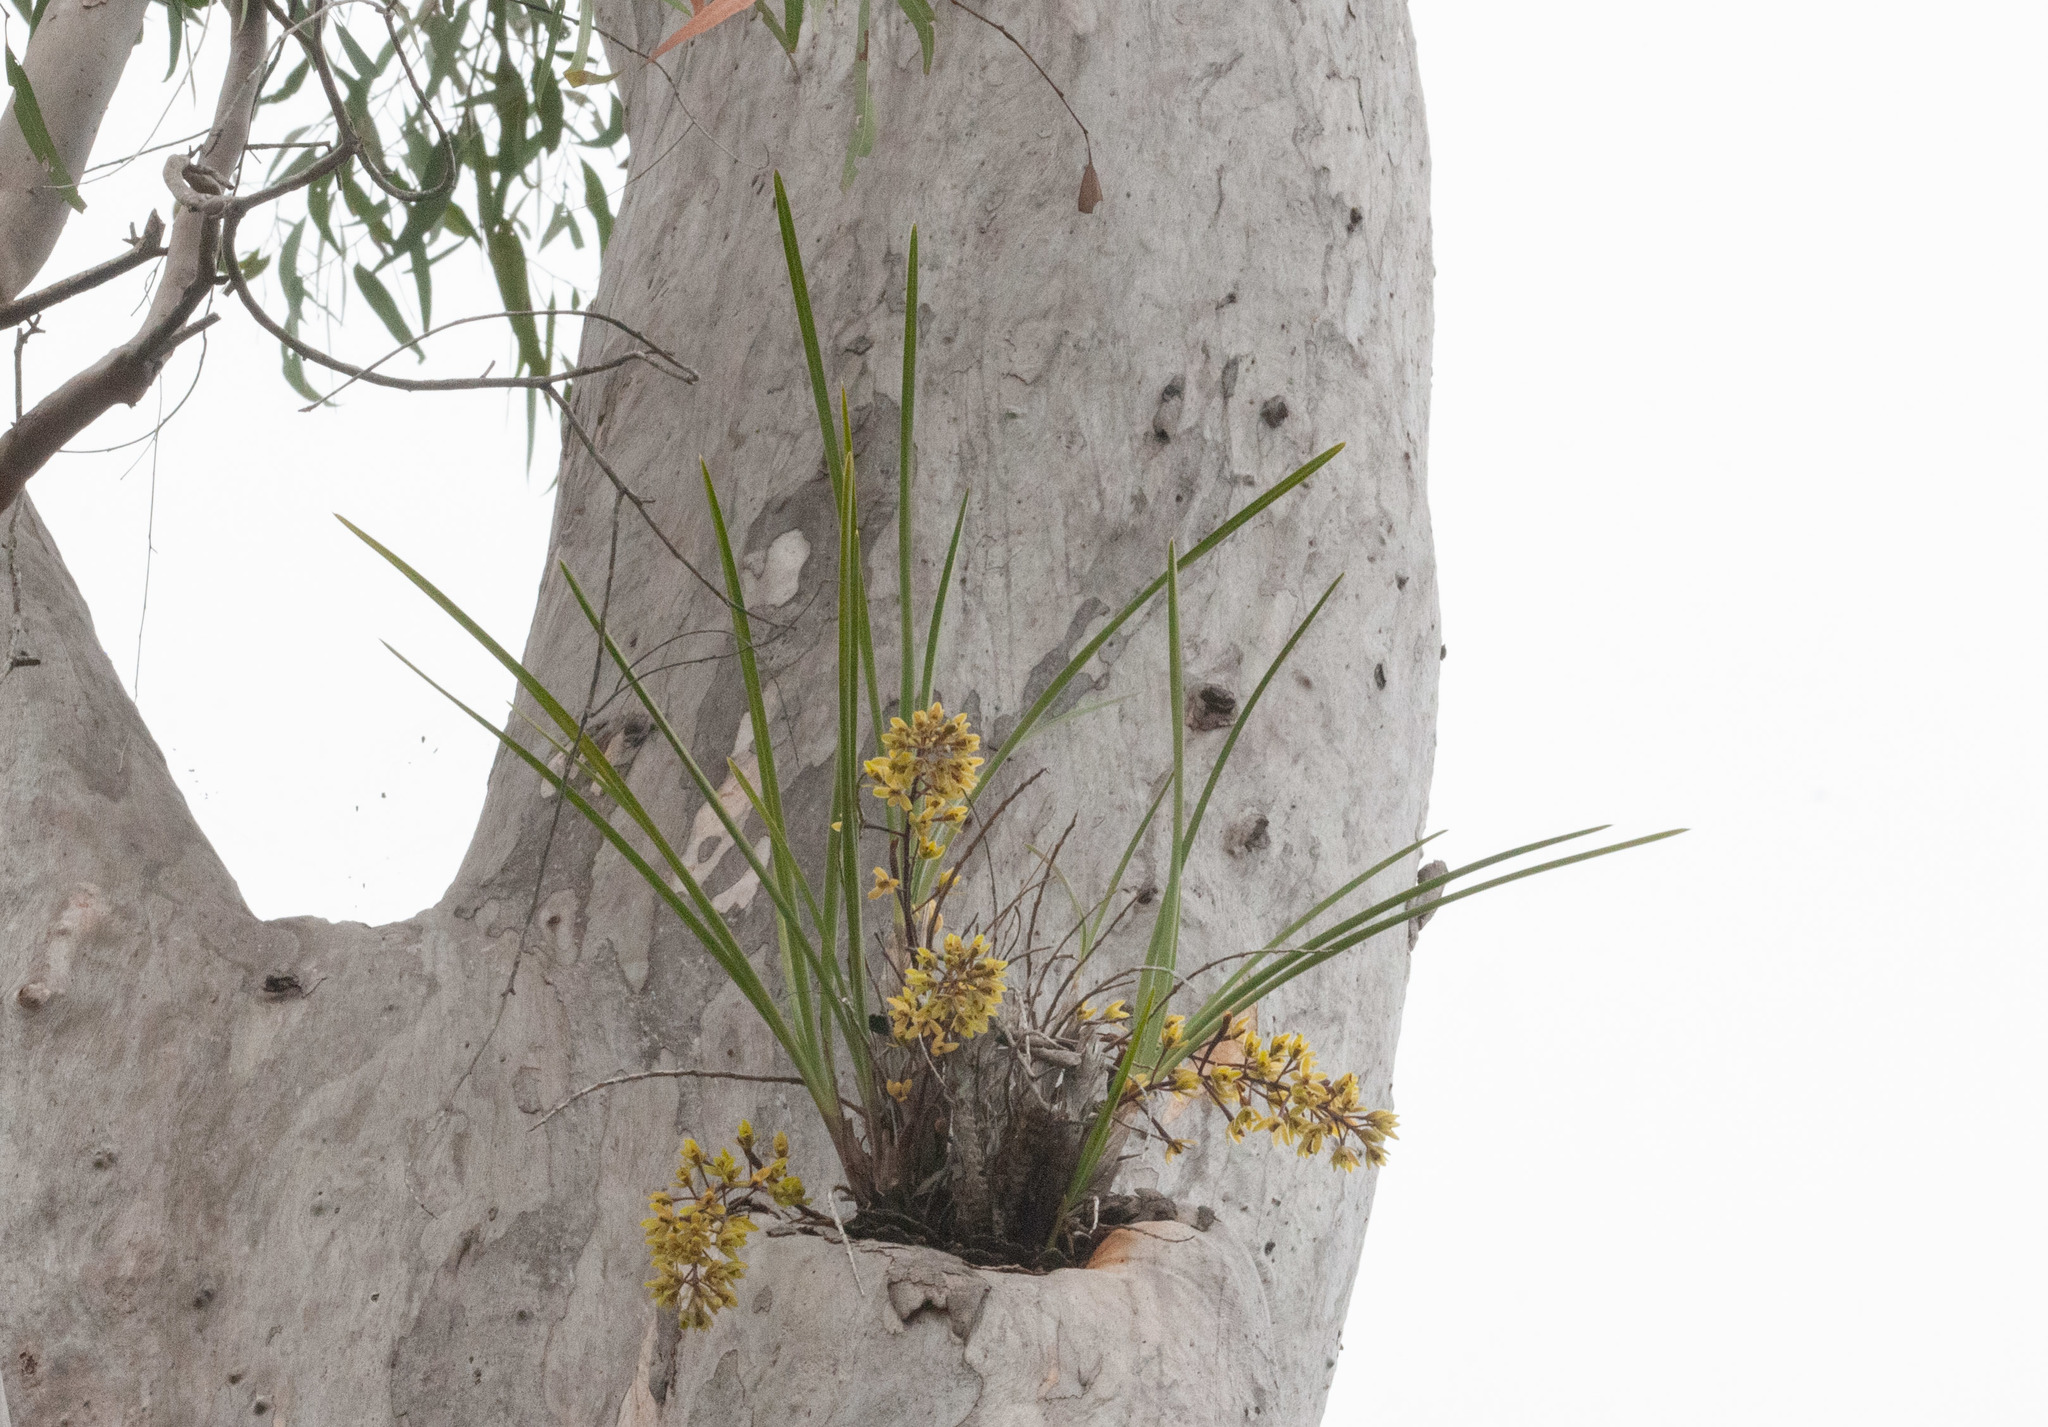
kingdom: Plantae
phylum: Tracheophyta
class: Liliopsida
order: Asparagales
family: Orchidaceae
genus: Cymbidium
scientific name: Cymbidium suave
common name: Snake orchid
